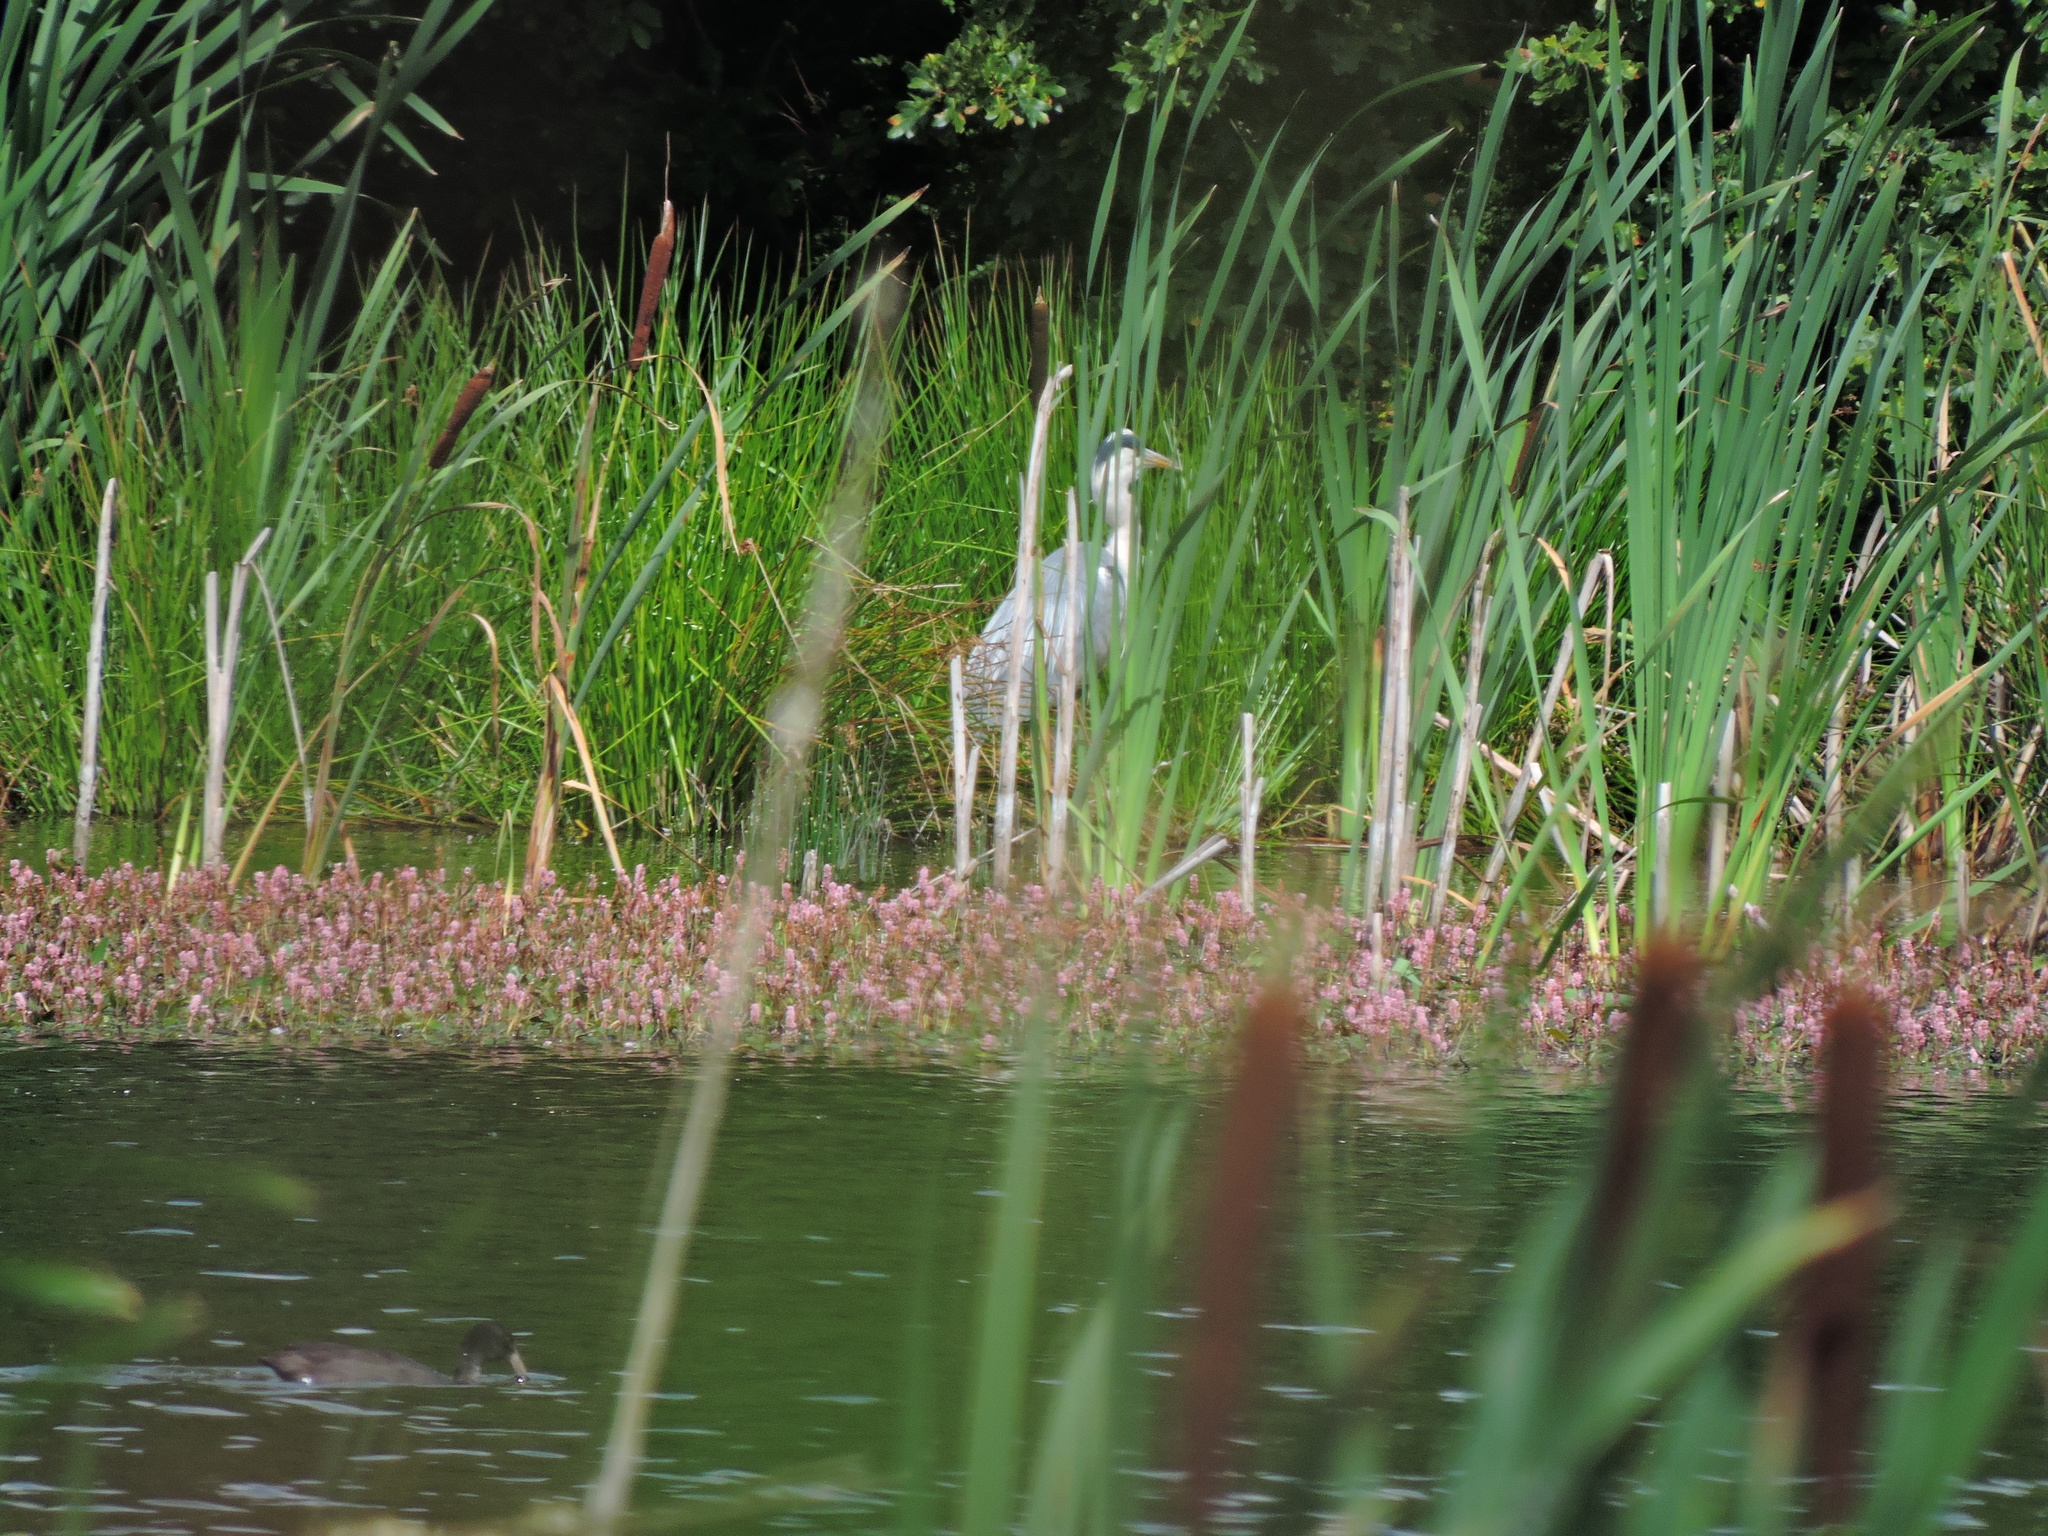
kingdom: Animalia
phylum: Chordata
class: Aves
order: Pelecaniformes
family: Ardeidae
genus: Ardea
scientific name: Ardea cinerea
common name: Grey heron
